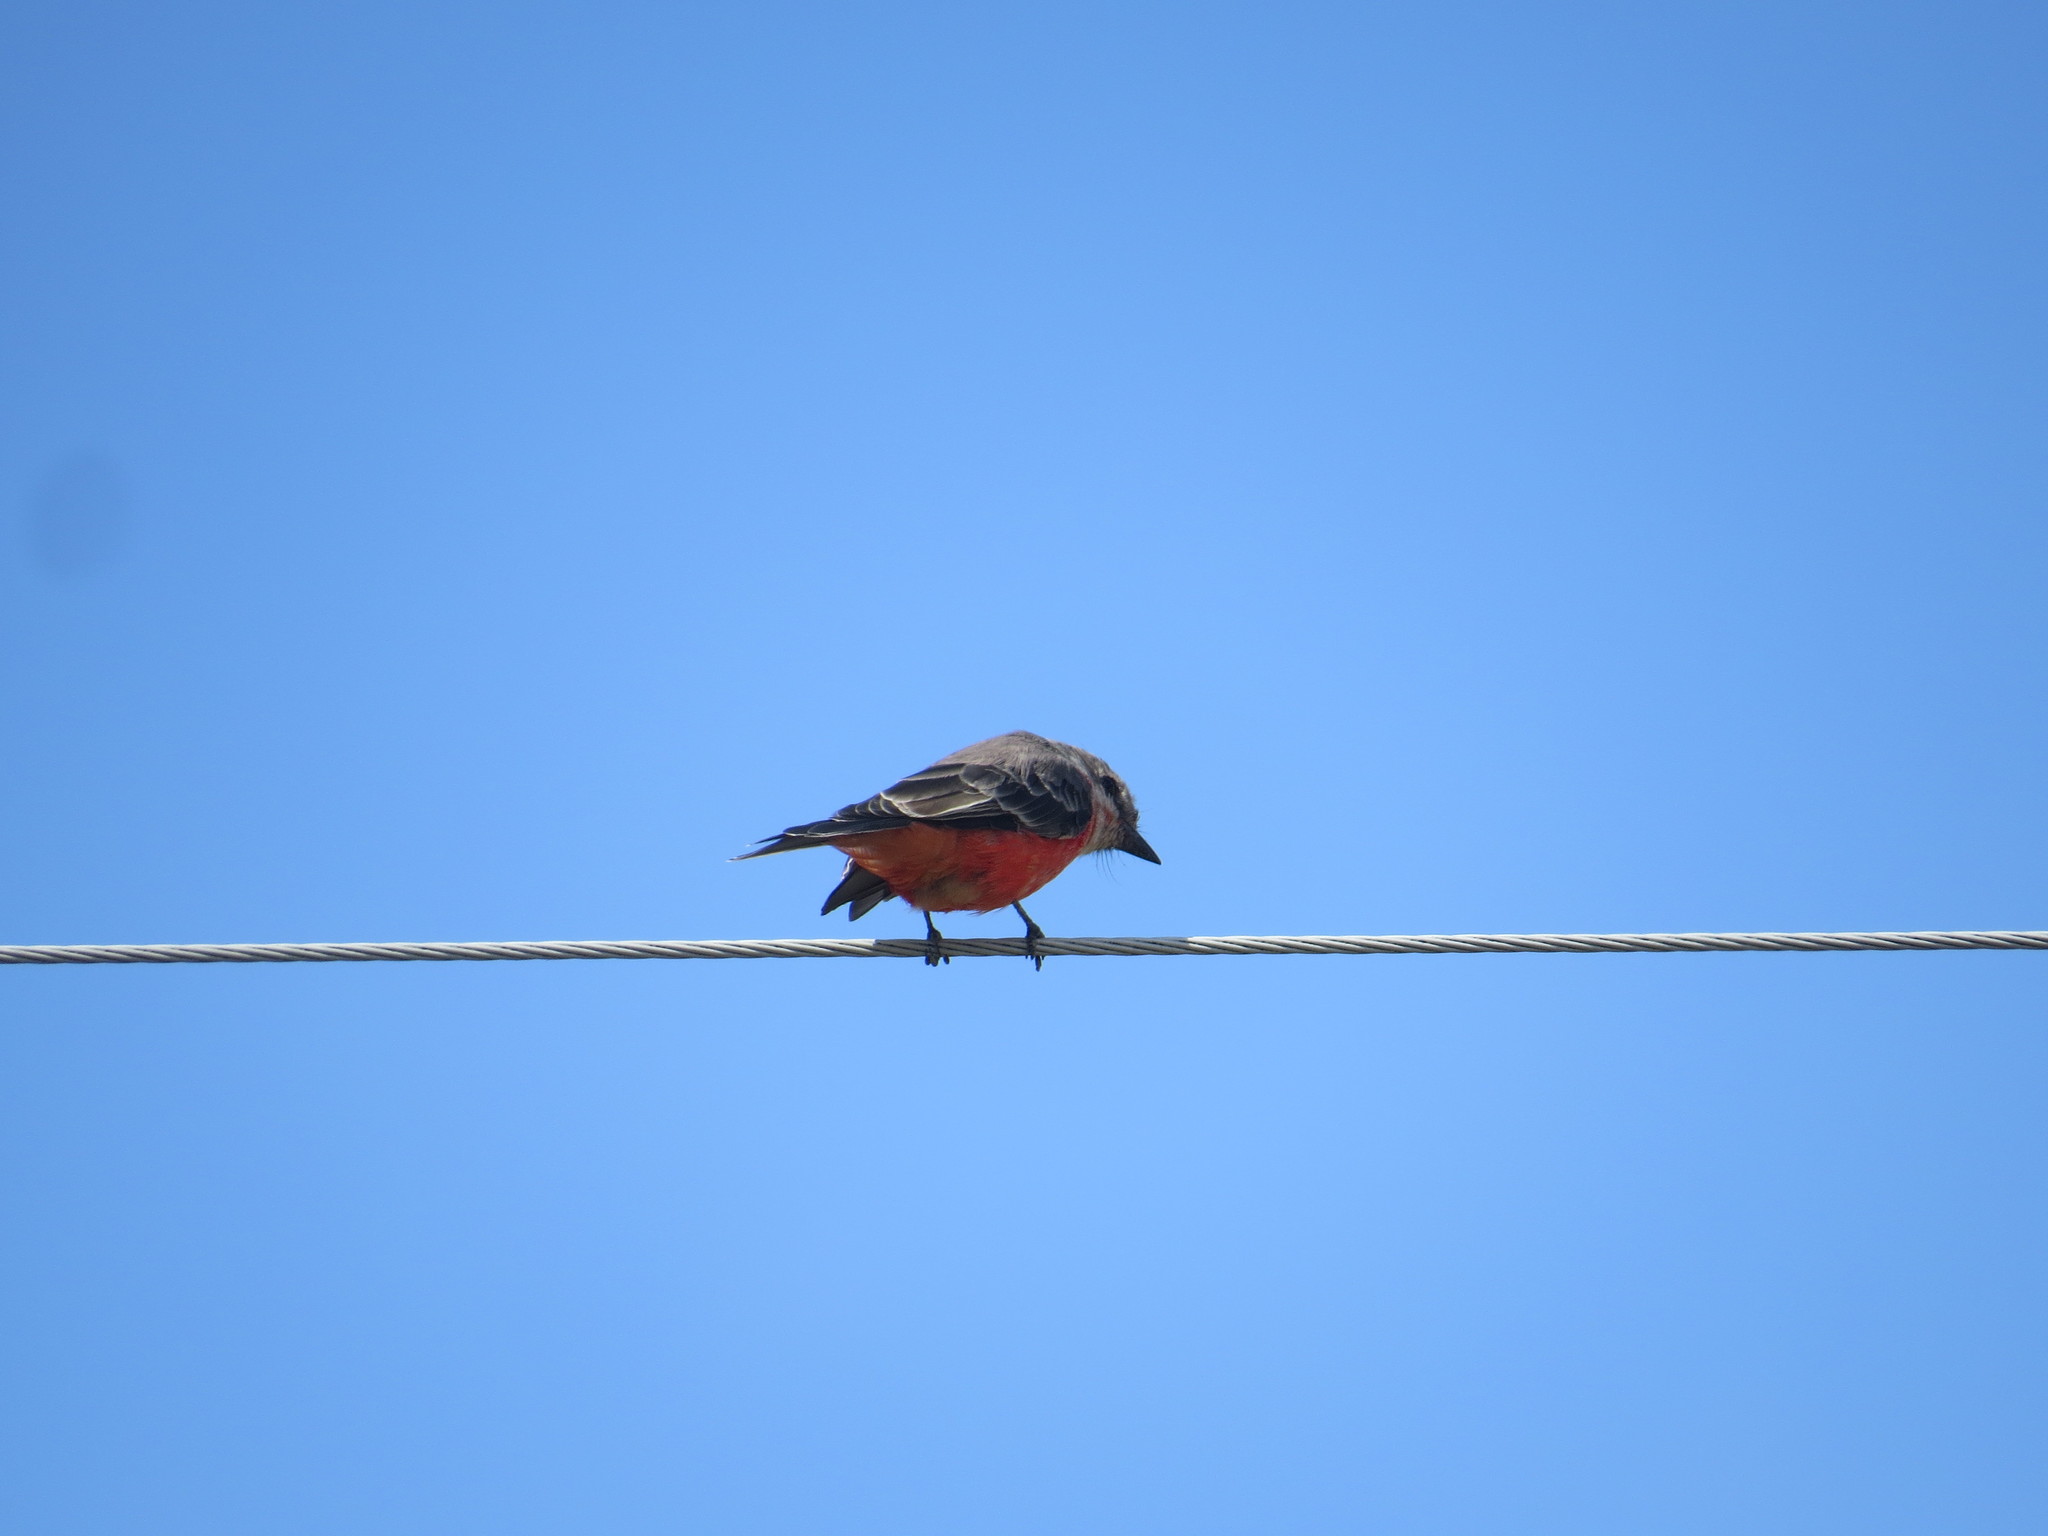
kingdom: Animalia
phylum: Chordata
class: Aves
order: Passeriformes
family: Tyrannidae
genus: Pyrocephalus
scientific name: Pyrocephalus rubinus
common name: Vermilion flycatcher
